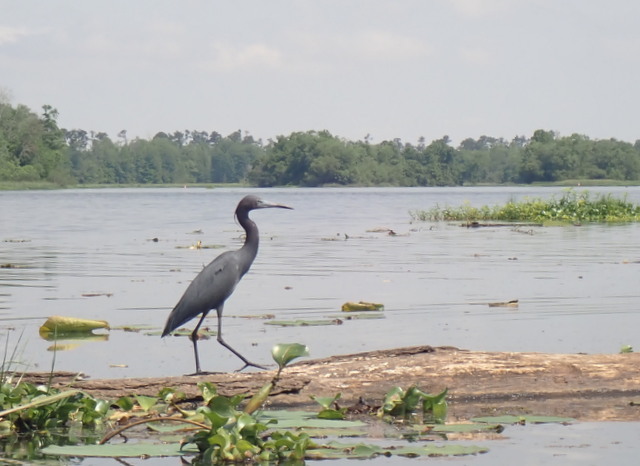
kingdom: Animalia
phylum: Chordata
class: Aves
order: Pelecaniformes
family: Ardeidae
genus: Egretta
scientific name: Egretta caerulea
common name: Little blue heron
